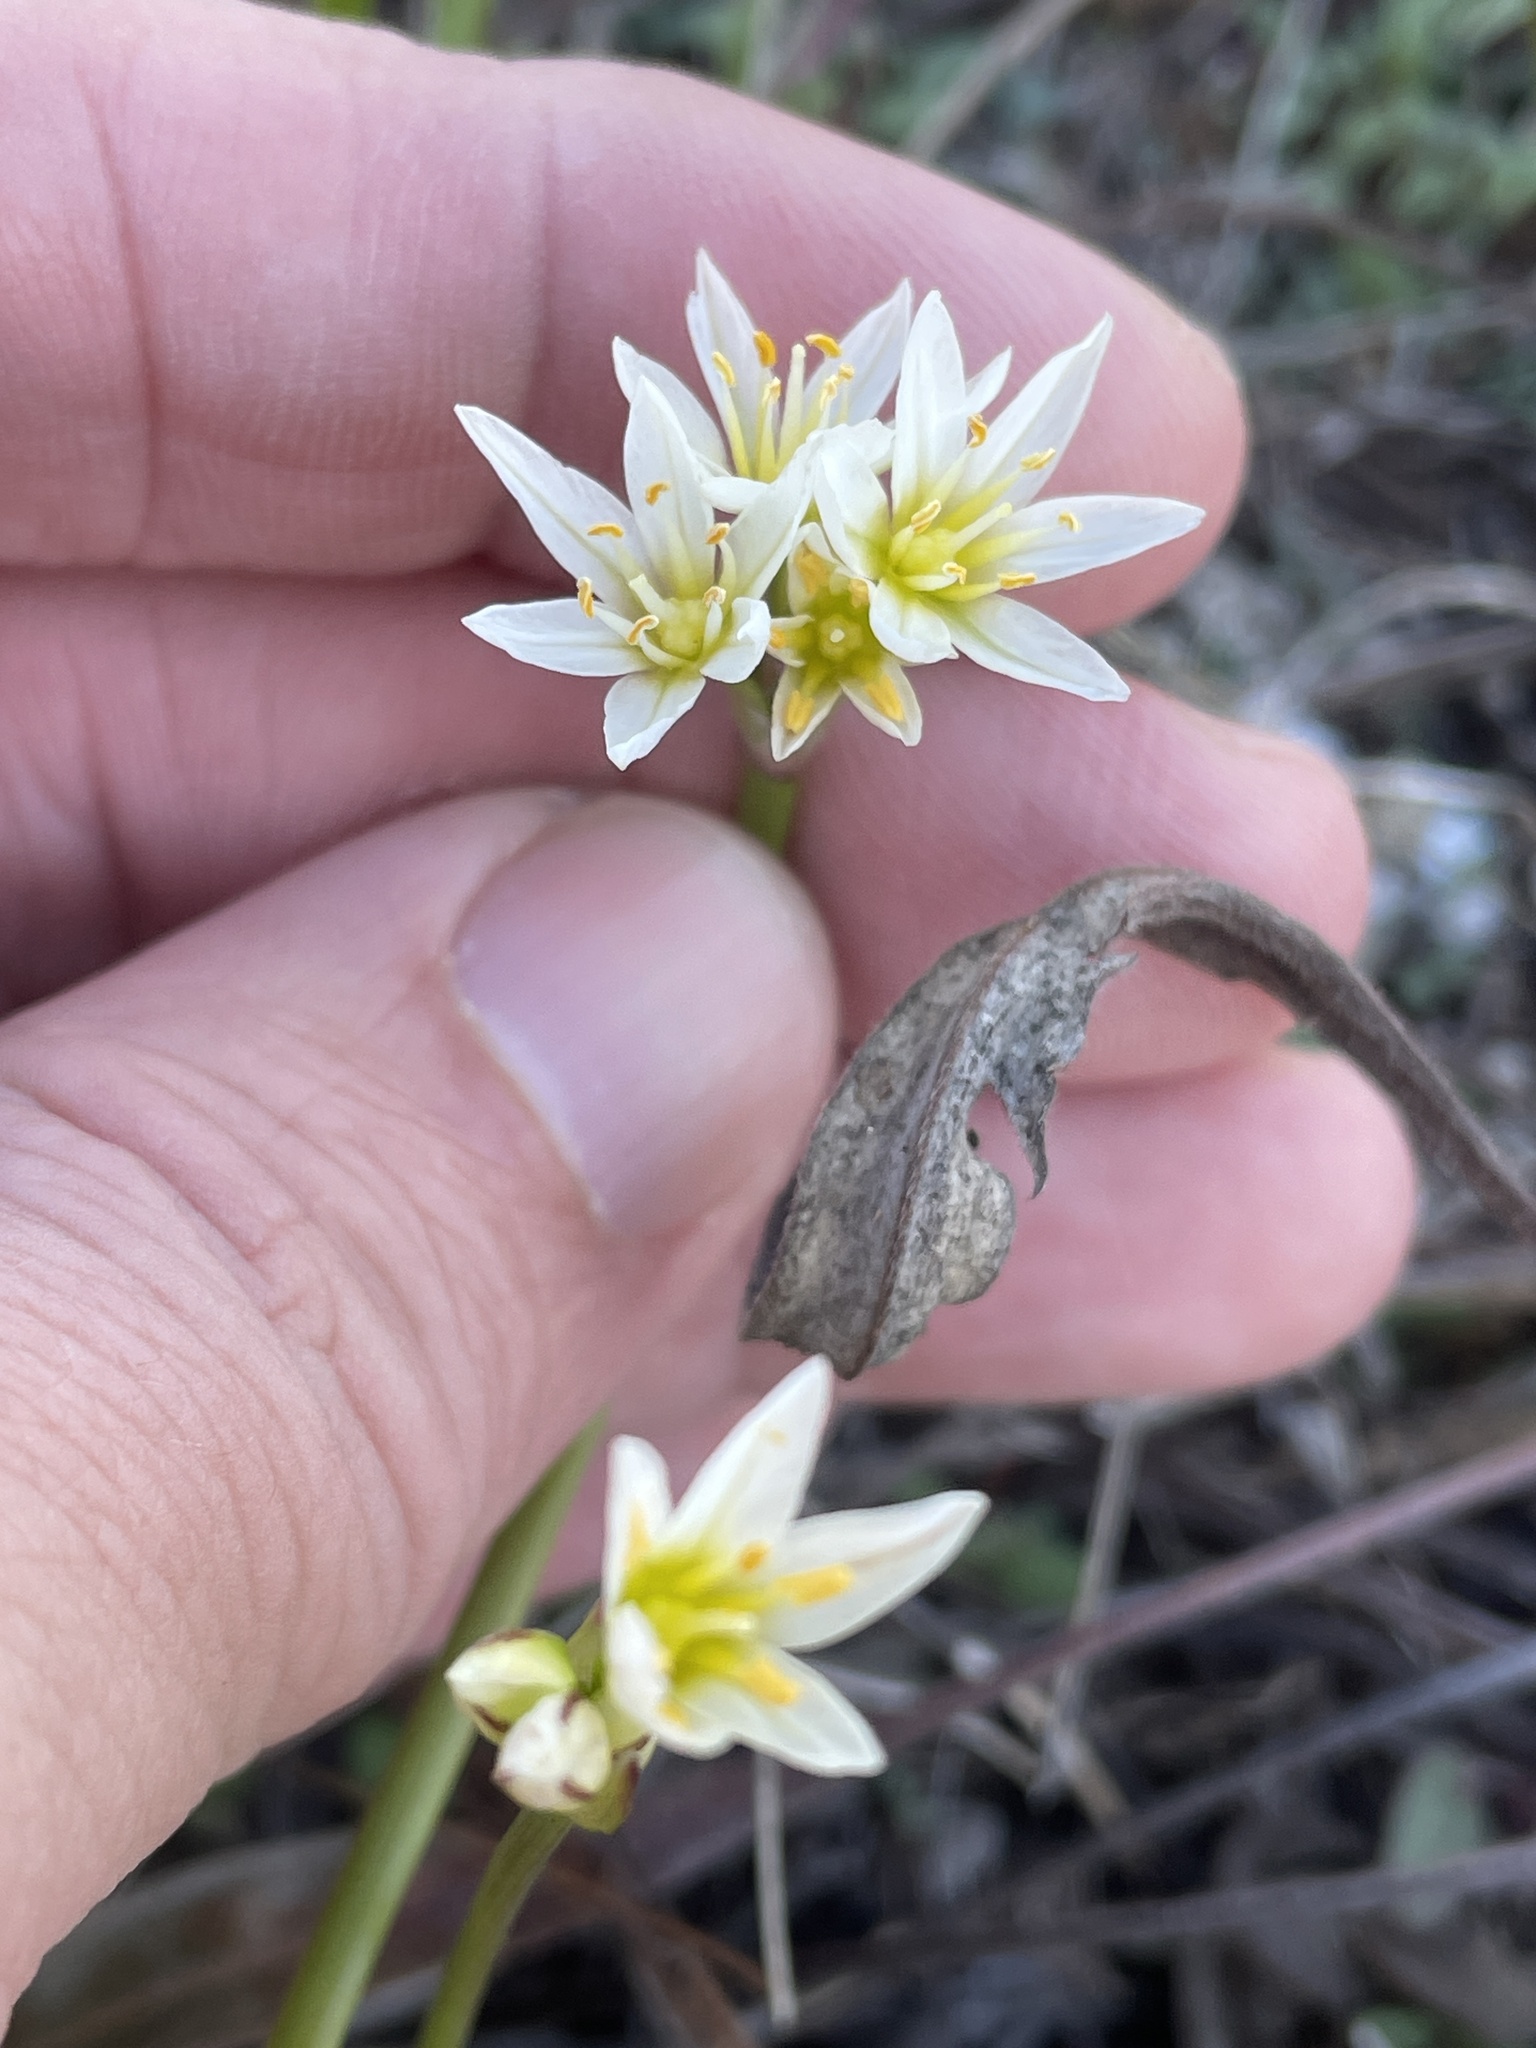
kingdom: Plantae
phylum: Tracheophyta
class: Liliopsida
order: Asparagales
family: Amaryllidaceae
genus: Nothoscordum
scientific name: Nothoscordum bivalve
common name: Crow-poison
